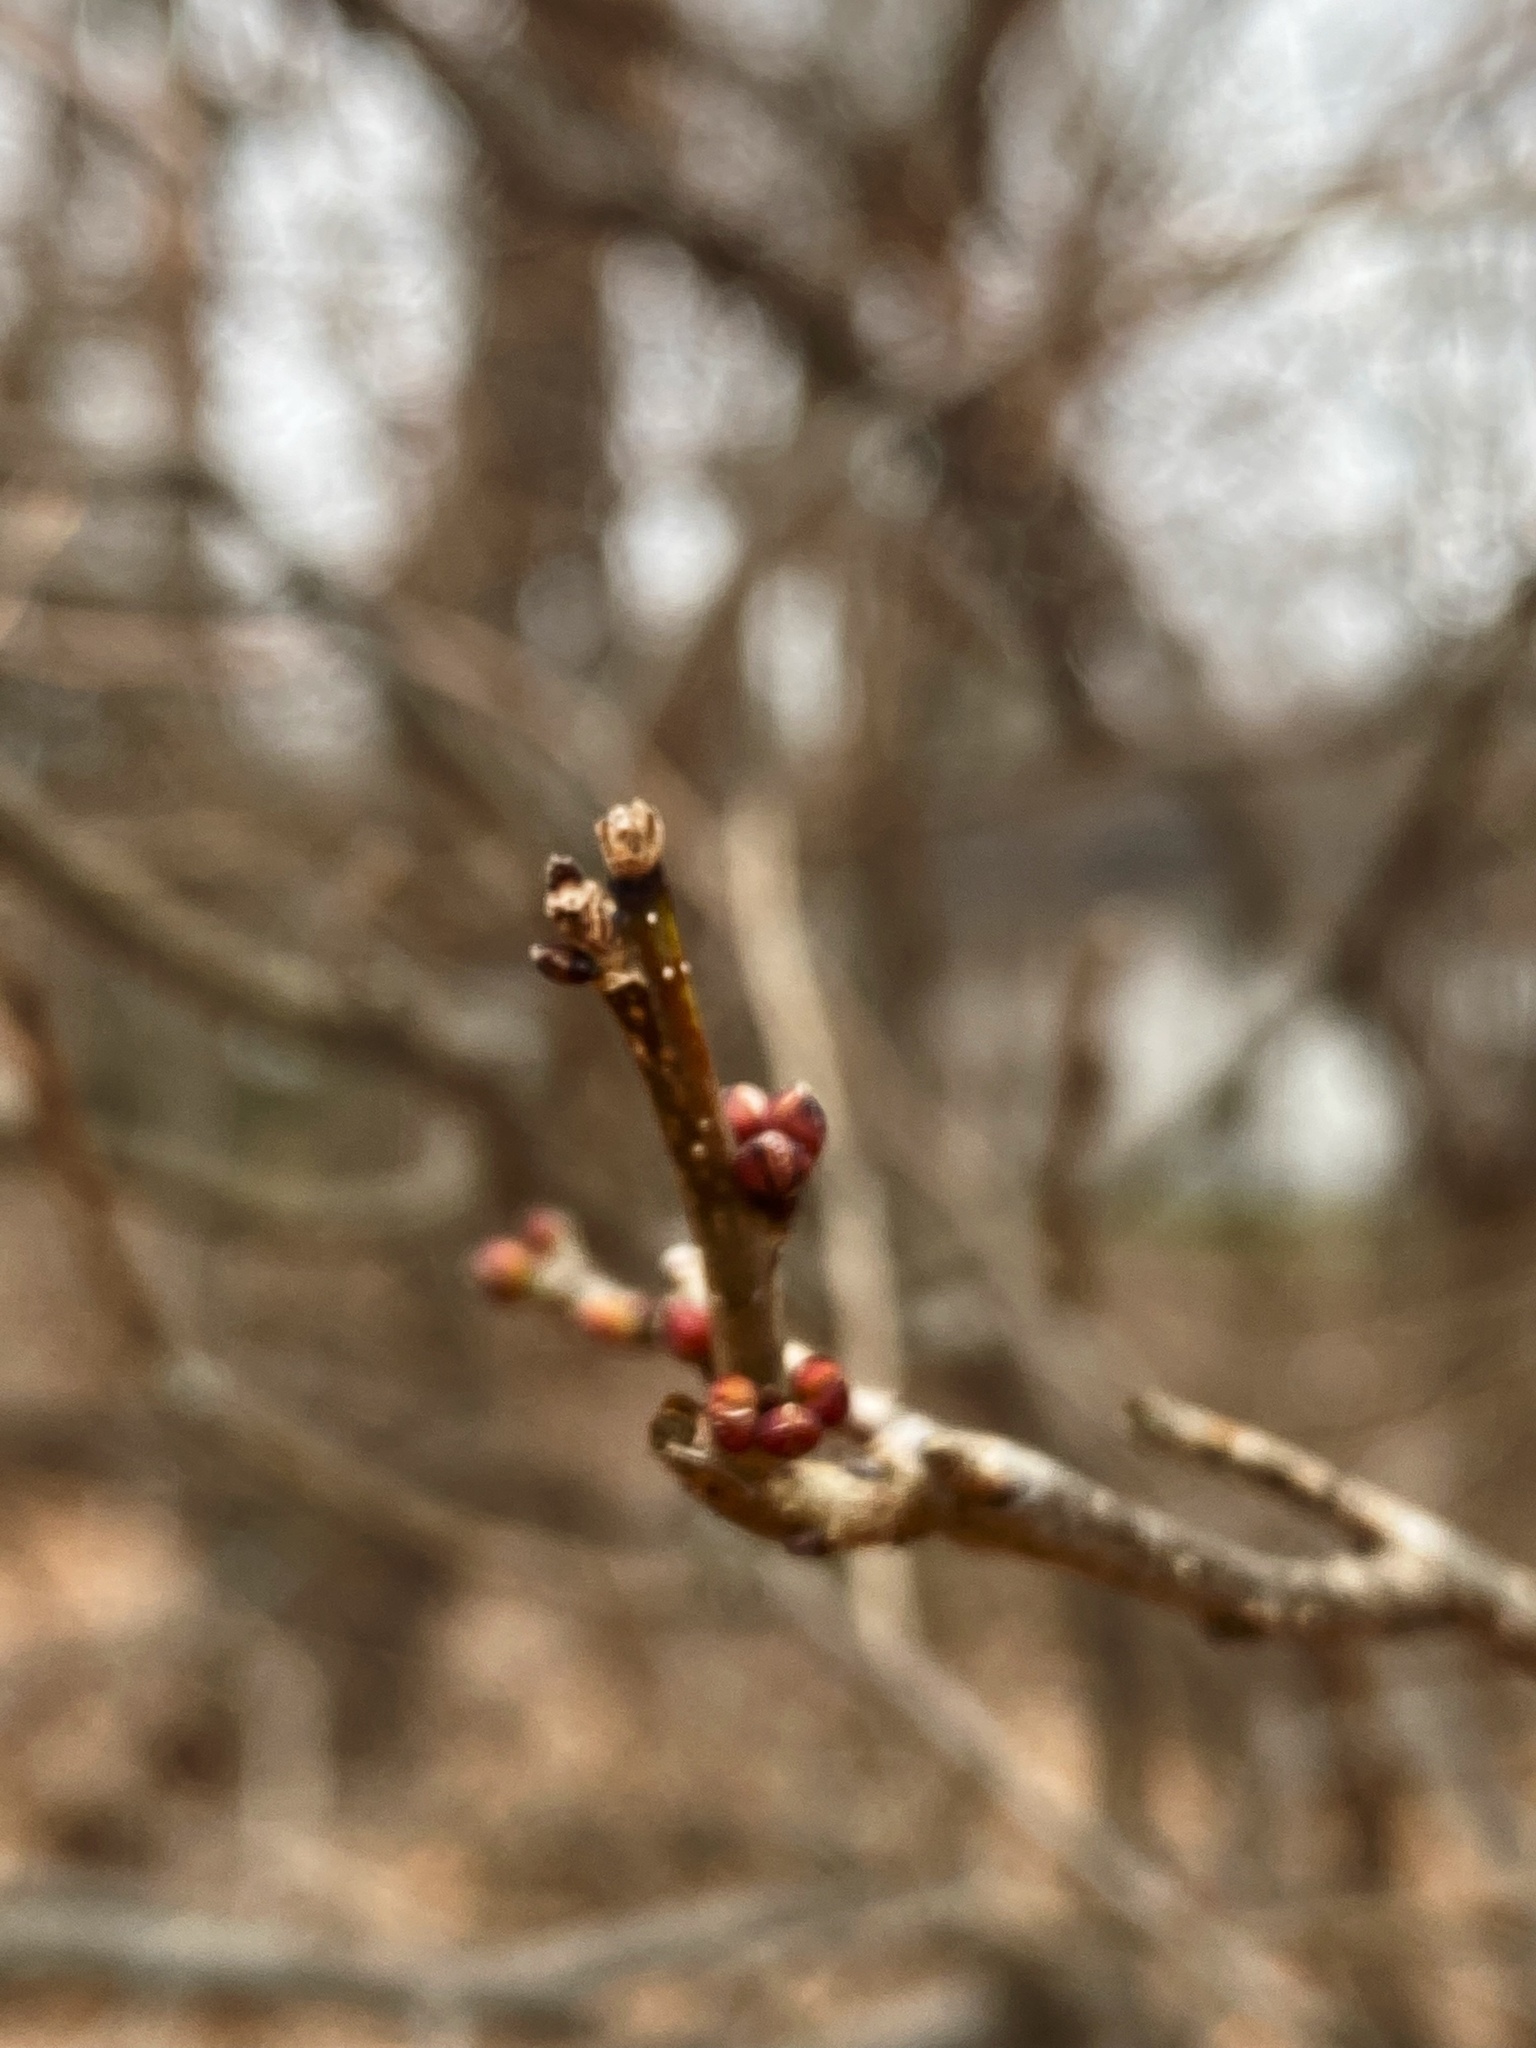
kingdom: Plantae
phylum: Tracheophyta
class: Magnoliopsida
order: Laurales
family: Lauraceae
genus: Lindera
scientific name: Lindera benzoin
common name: Spicebush
